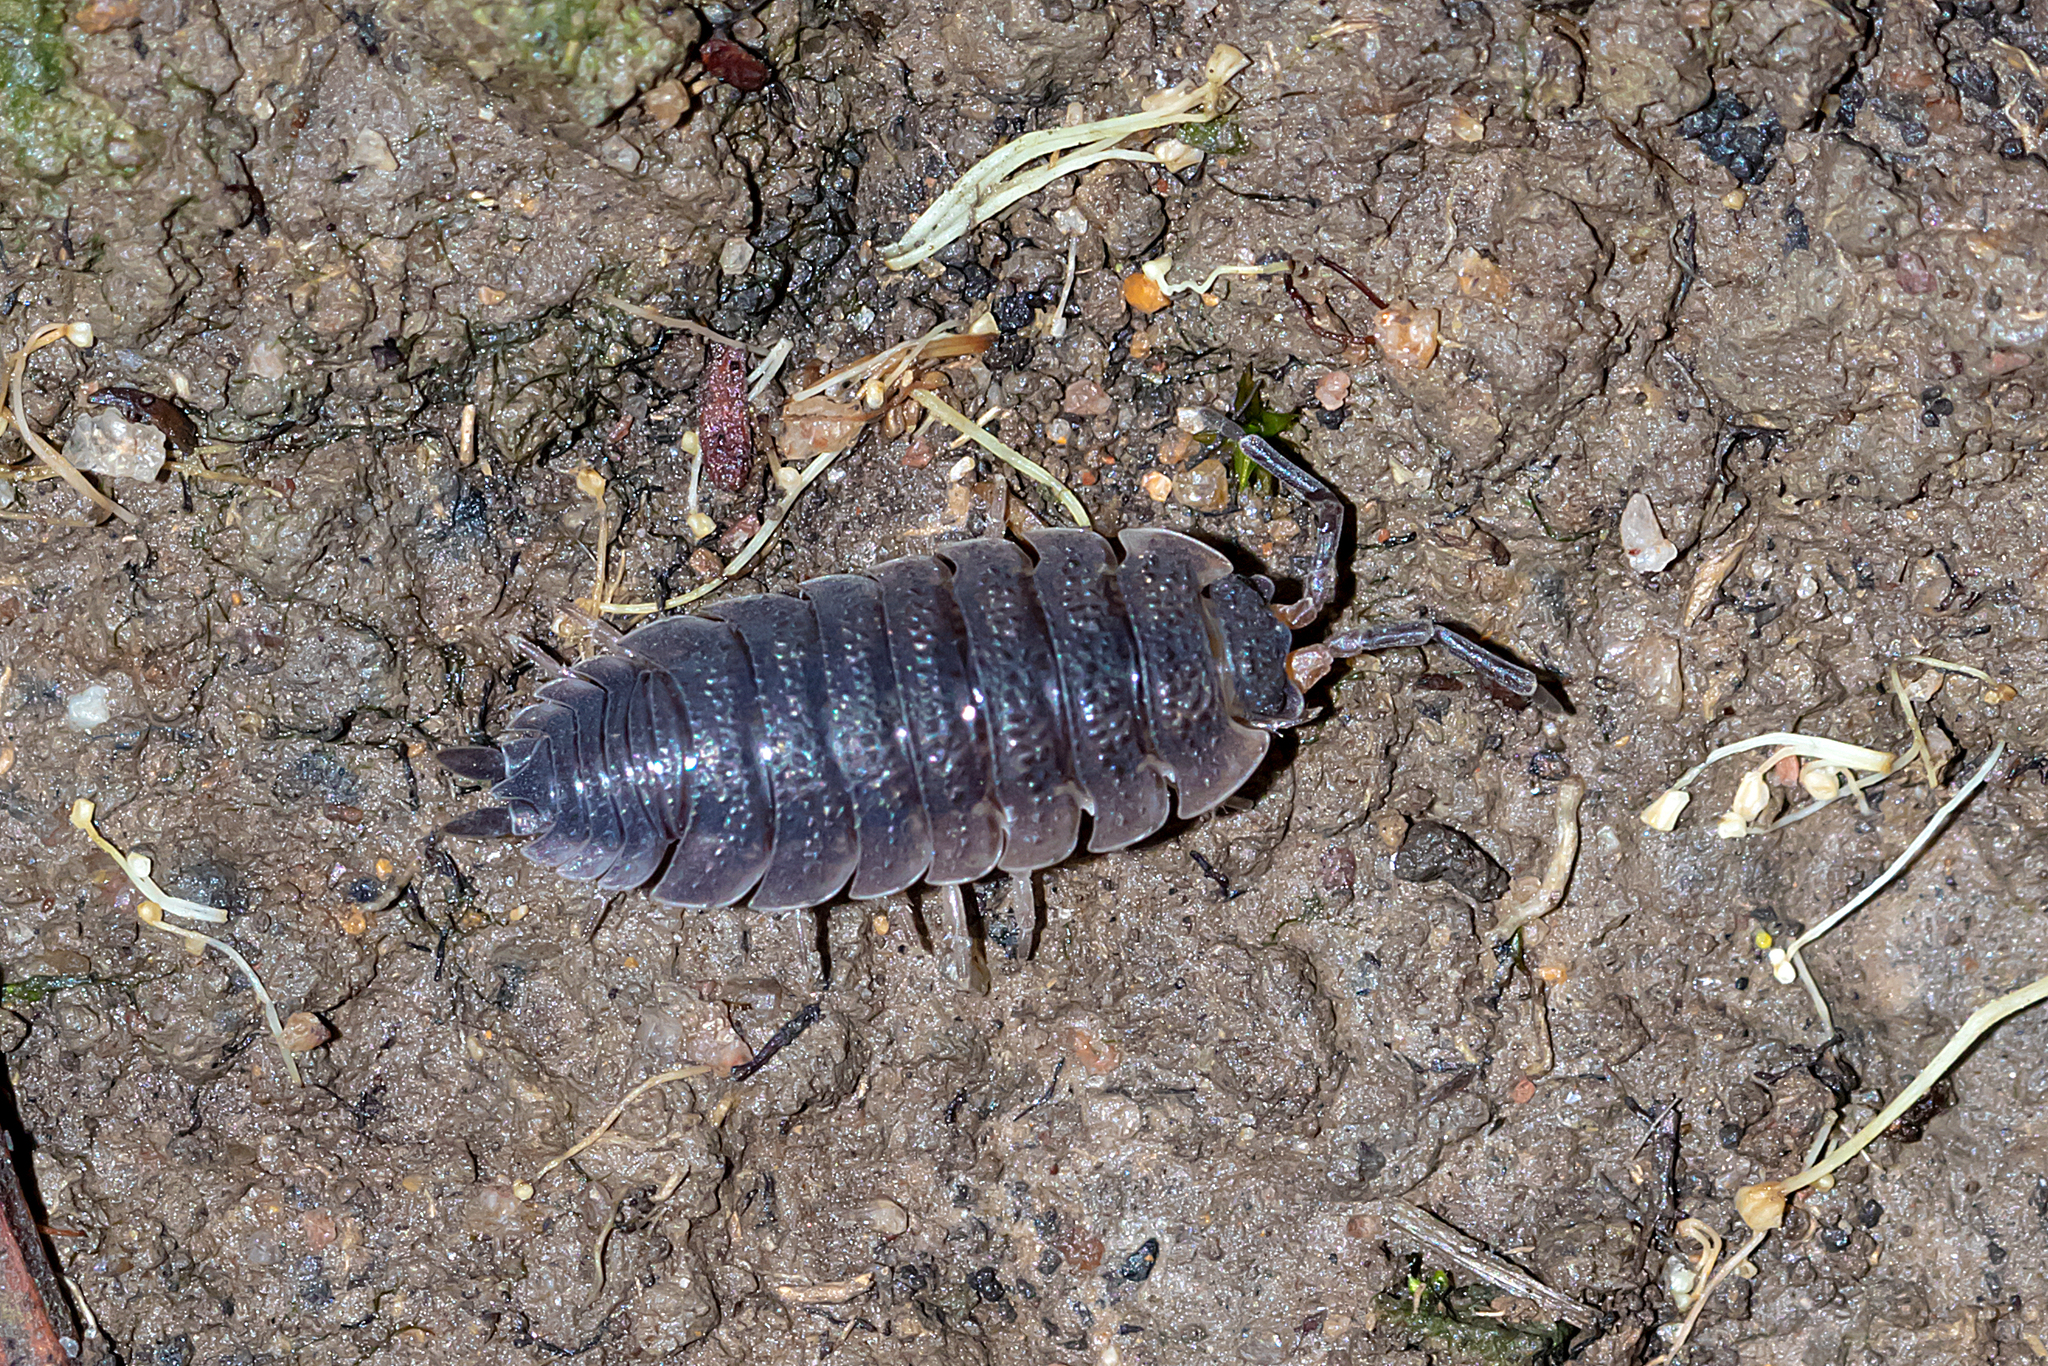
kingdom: Animalia
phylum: Arthropoda
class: Malacostraca
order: Isopoda
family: Porcellionidae
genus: Porcellio
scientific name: Porcellio scaber
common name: Common rough woodlouse
